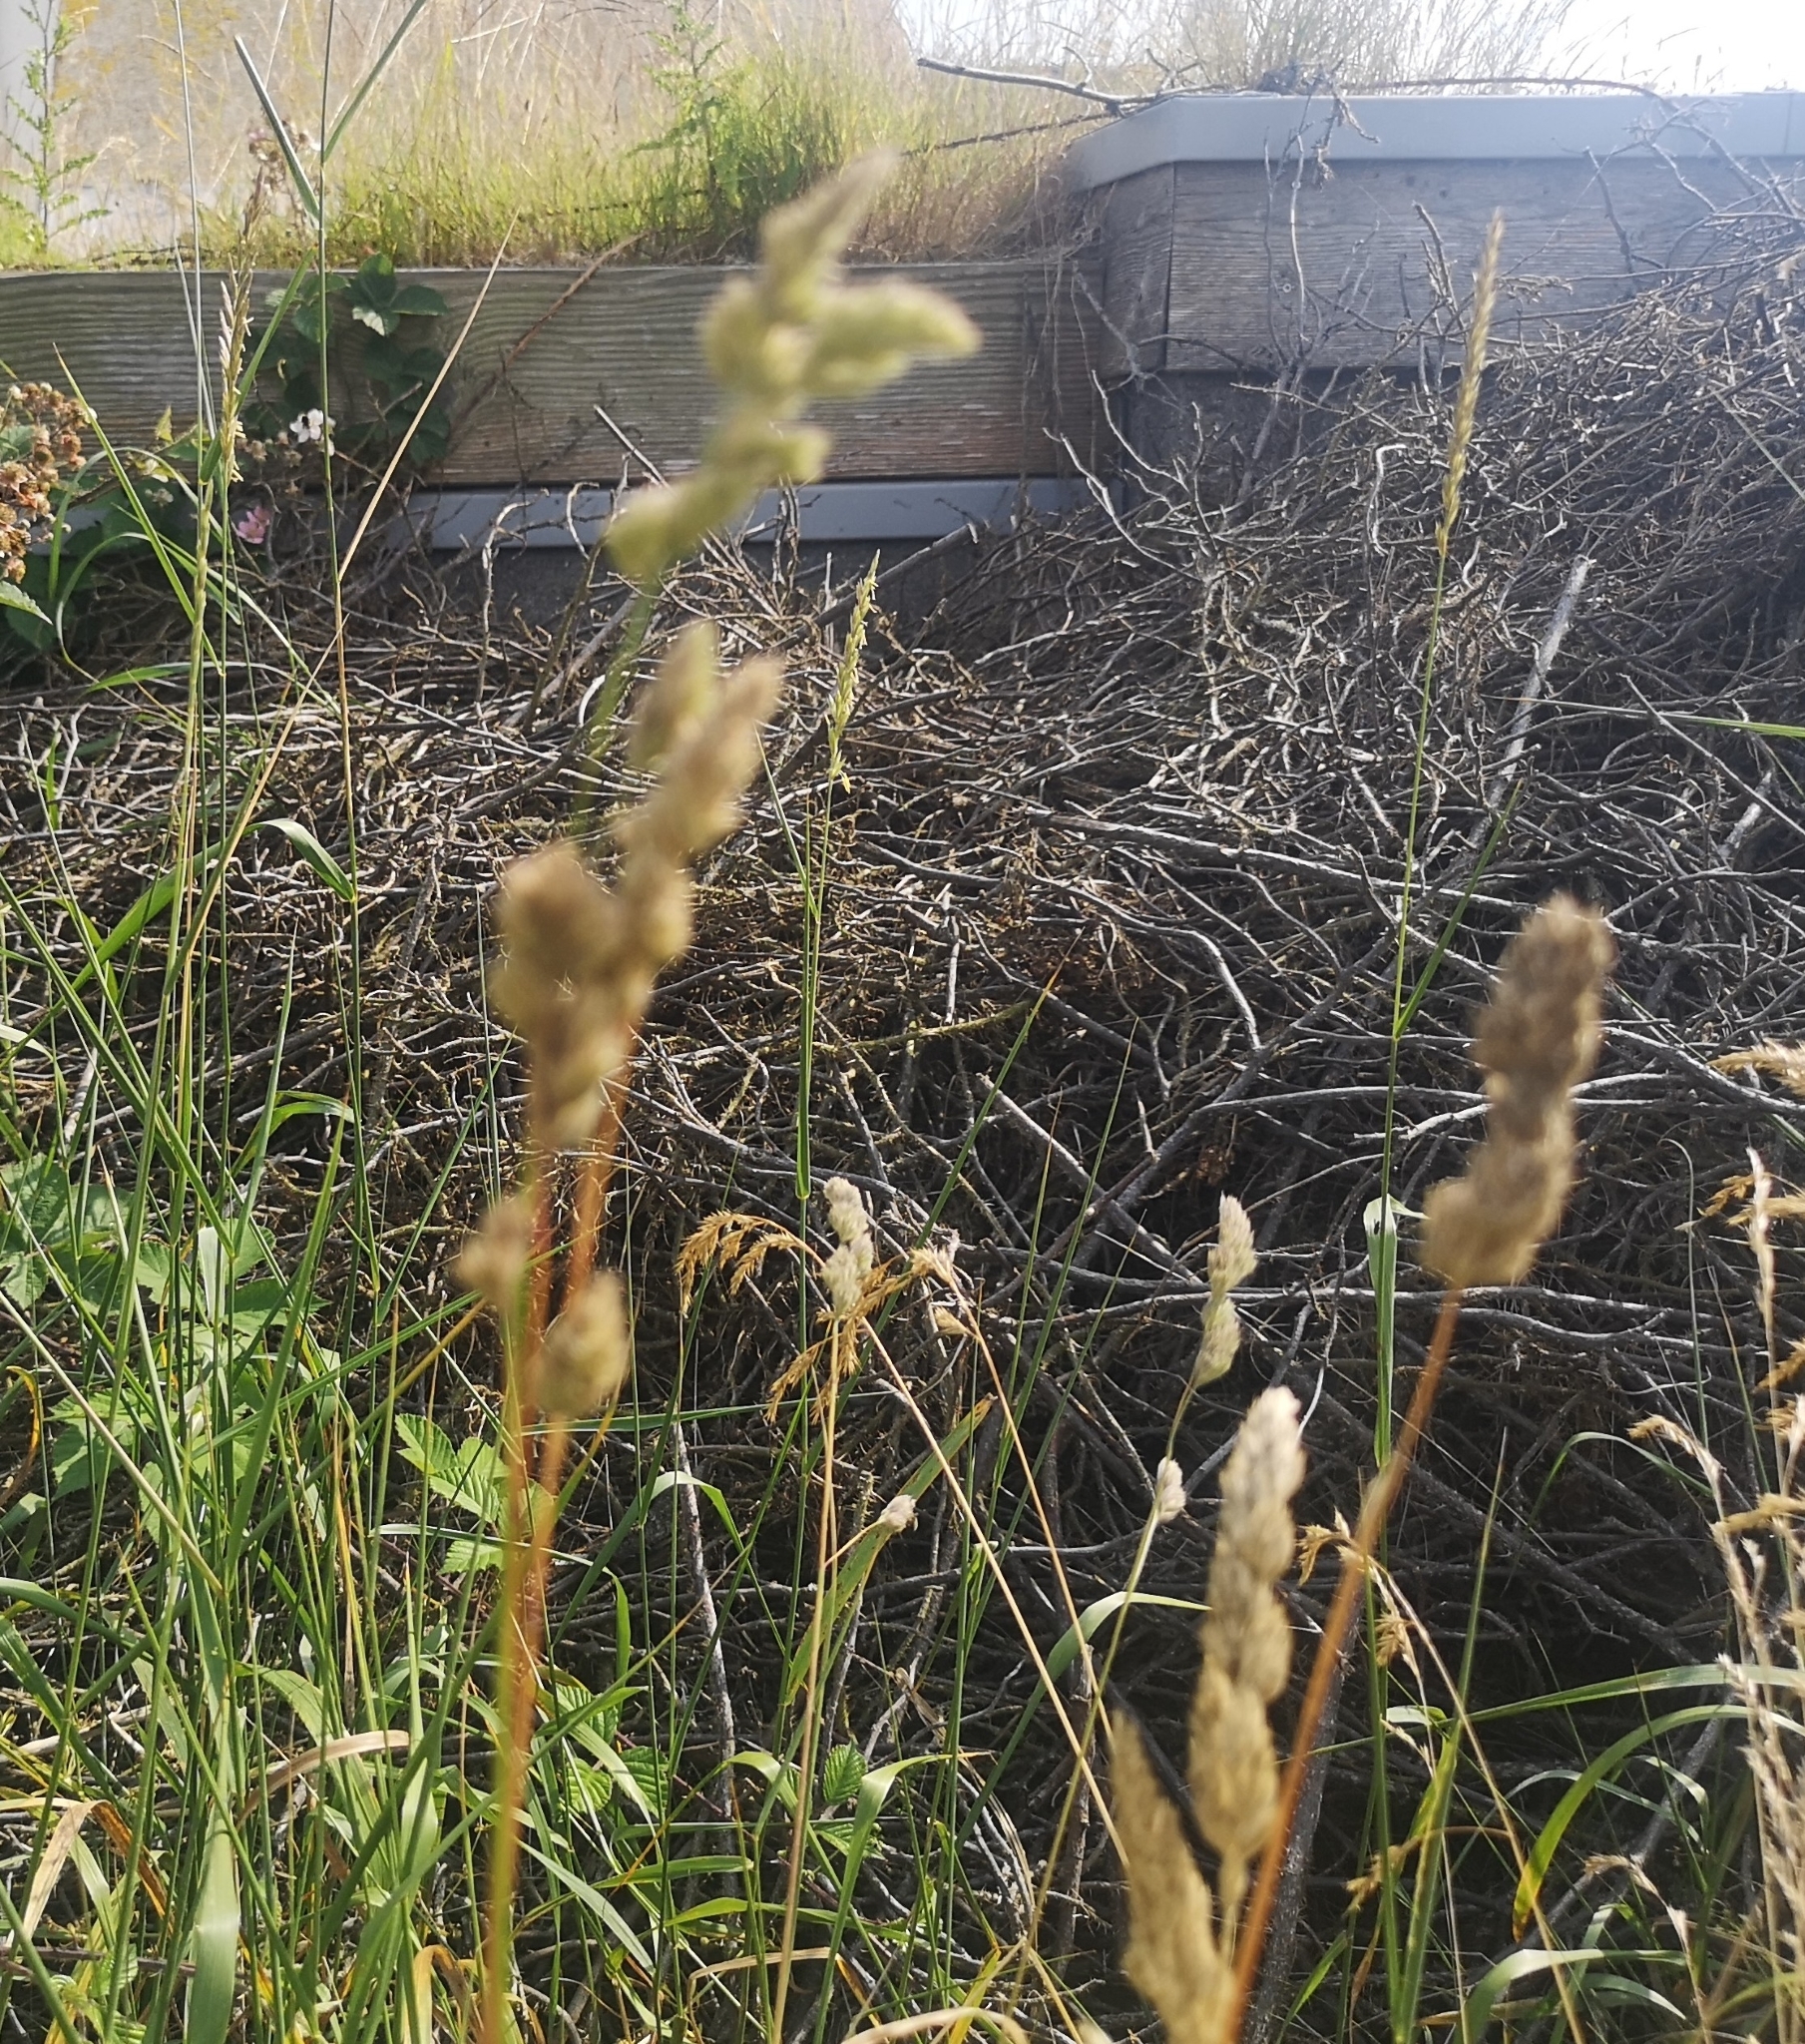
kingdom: Plantae
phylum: Tracheophyta
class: Liliopsida
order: Poales
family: Poaceae
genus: Dactylis
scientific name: Dactylis glomerata
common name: Orchardgrass
